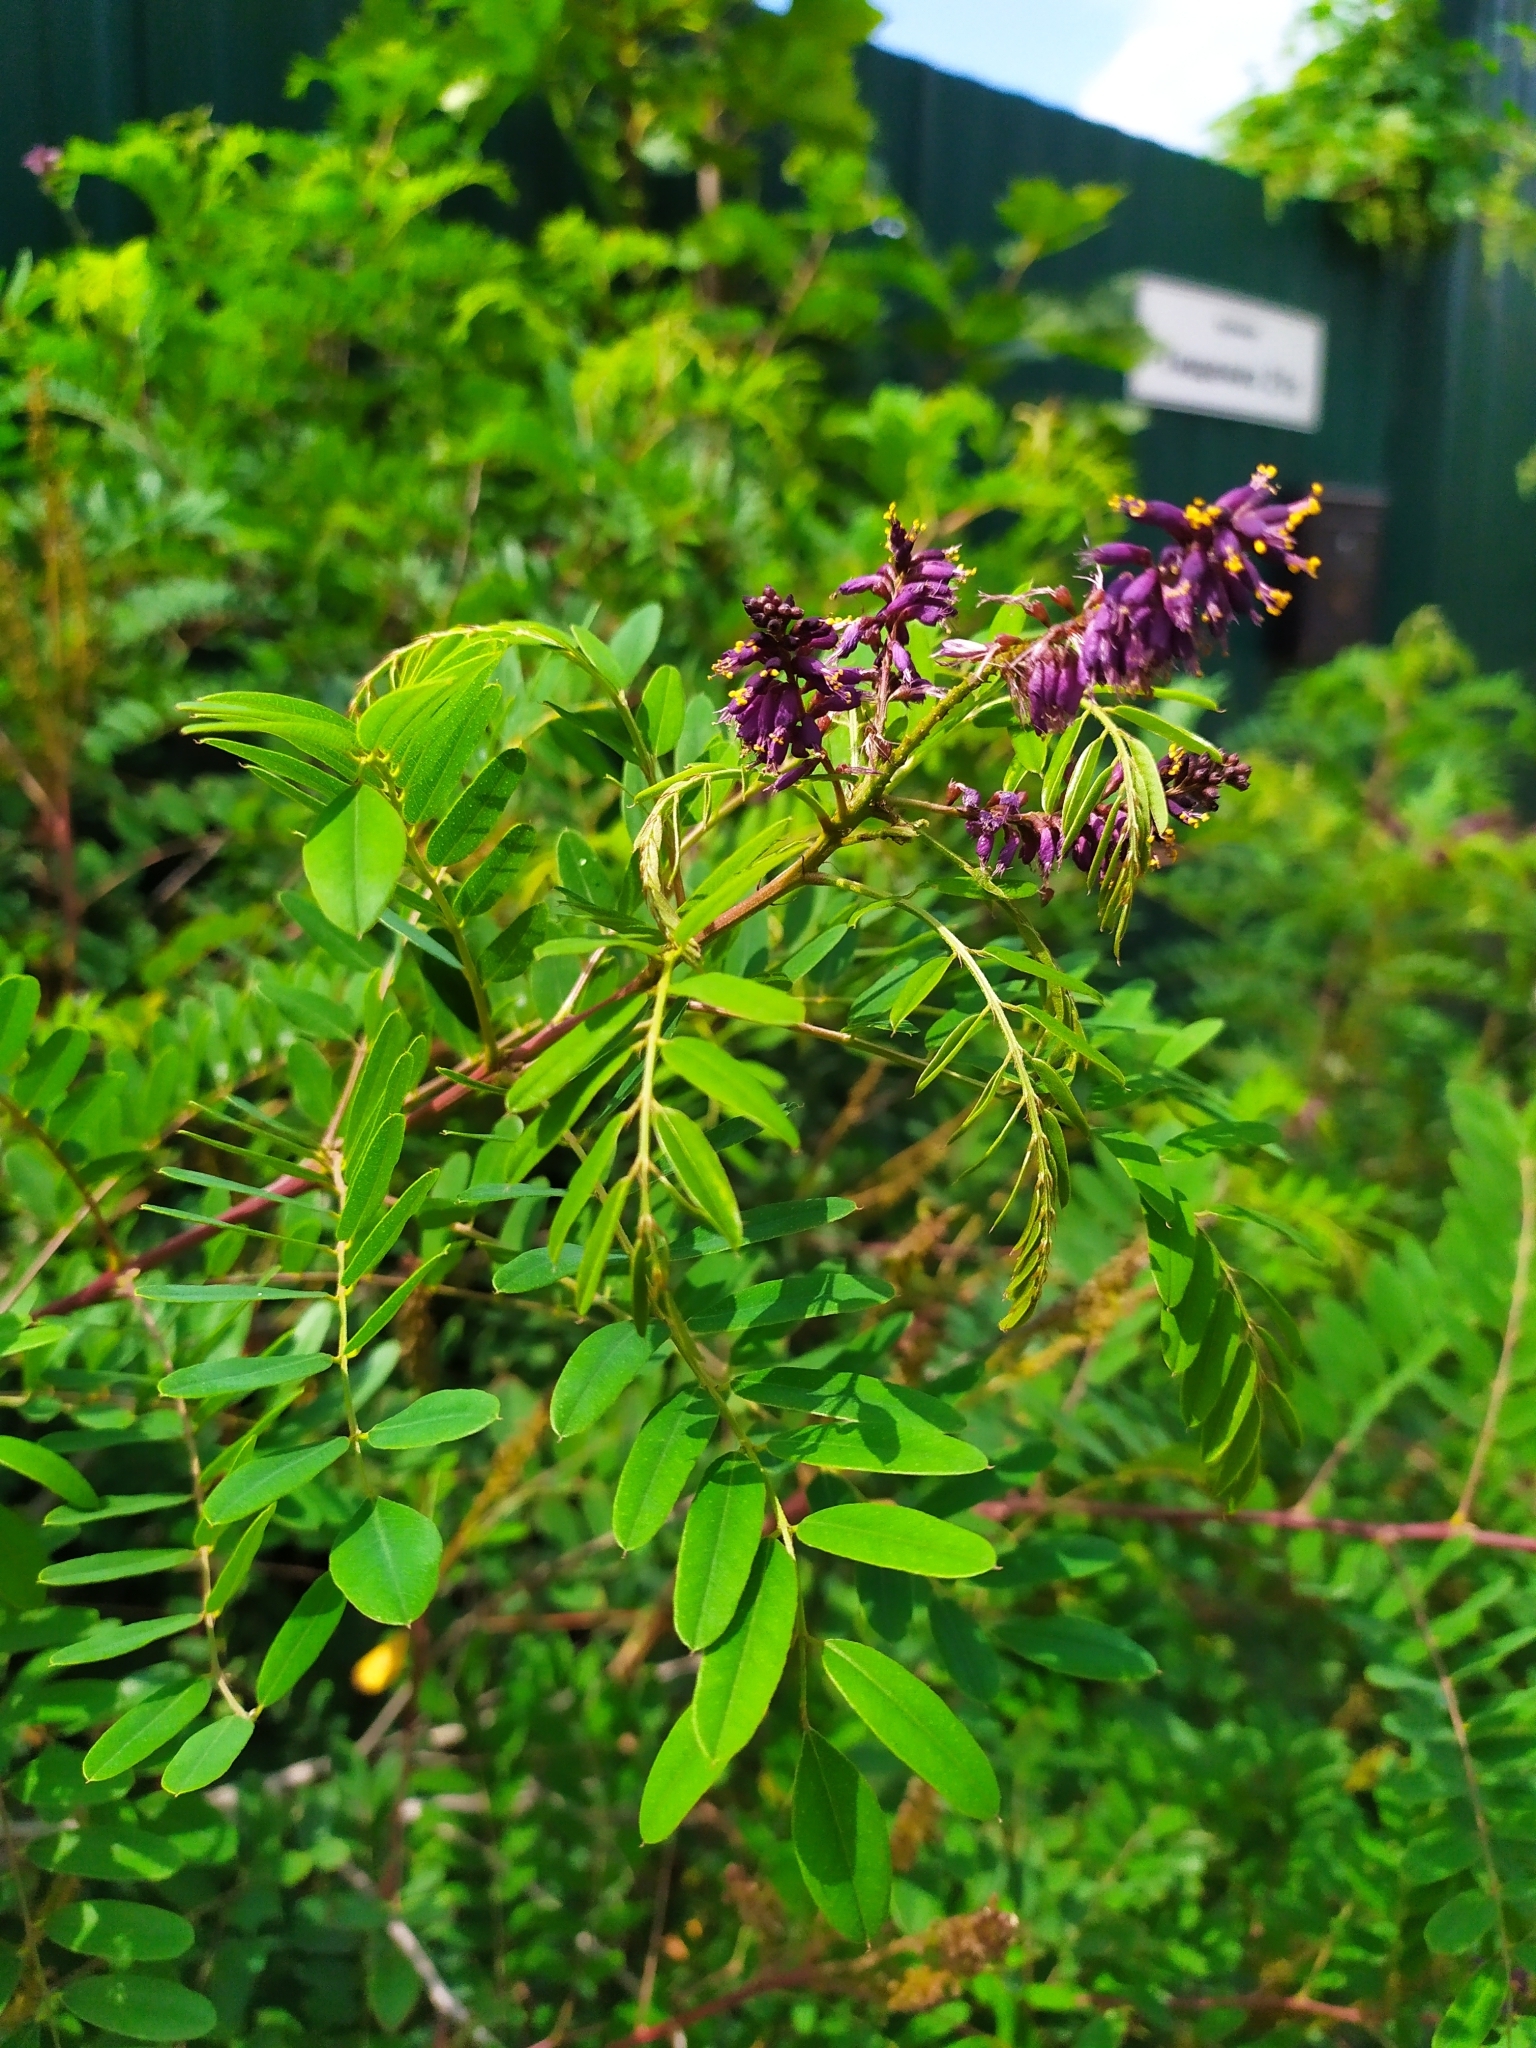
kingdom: Plantae
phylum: Tracheophyta
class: Magnoliopsida
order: Fabales
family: Fabaceae
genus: Amorpha
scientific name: Amorpha fruticosa
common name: False indigo
